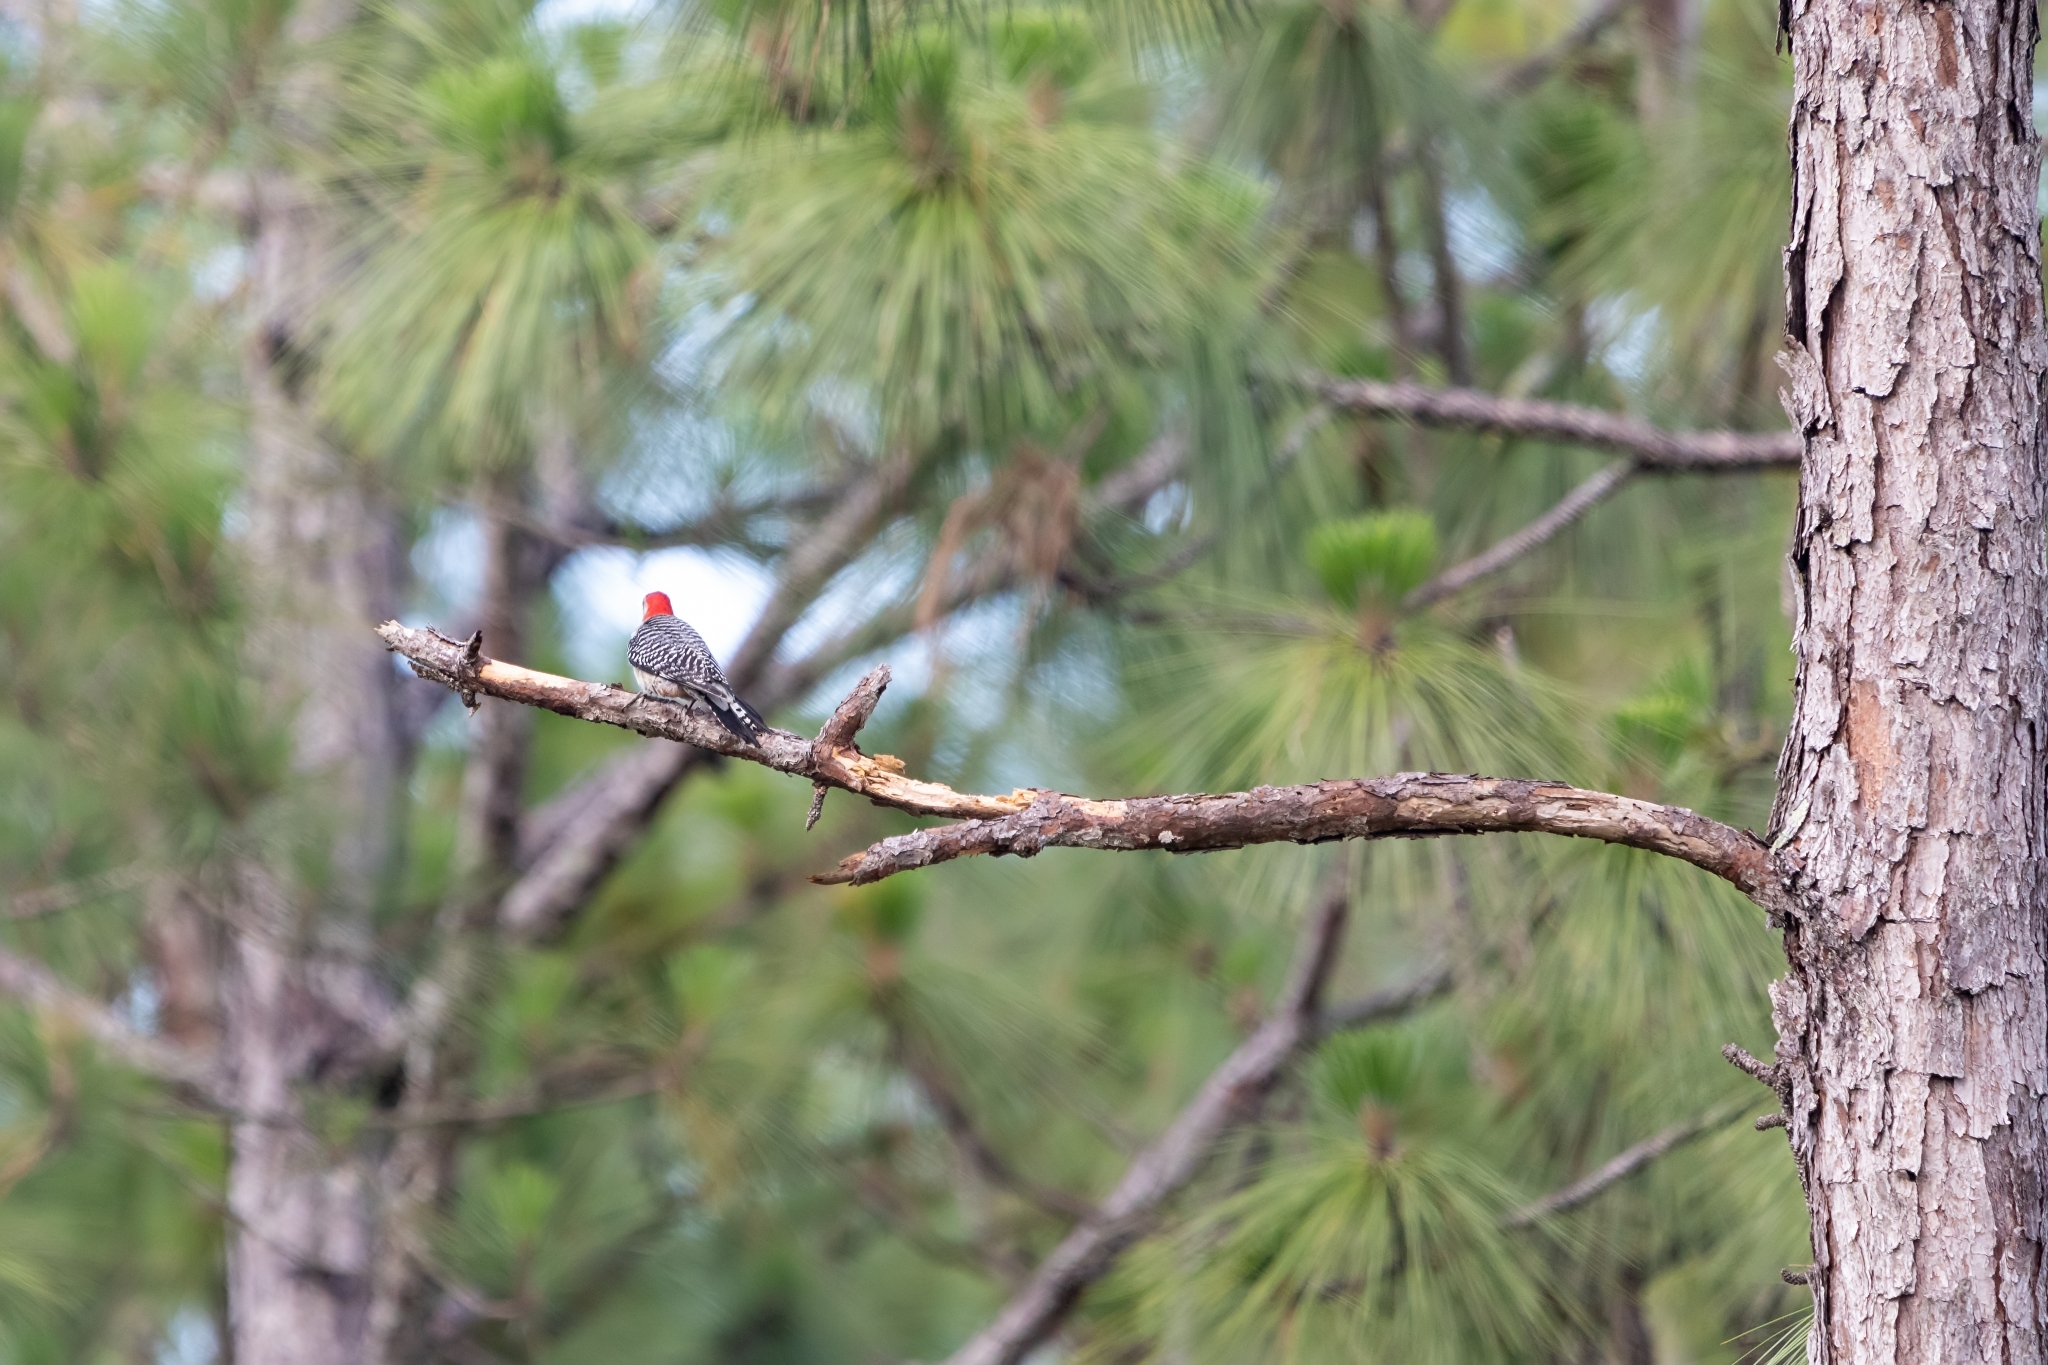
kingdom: Animalia
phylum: Chordata
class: Aves
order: Piciformes
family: Picidae
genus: Melanerpes
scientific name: Melanerpes carolinus
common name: Red-bellied woodpecker
